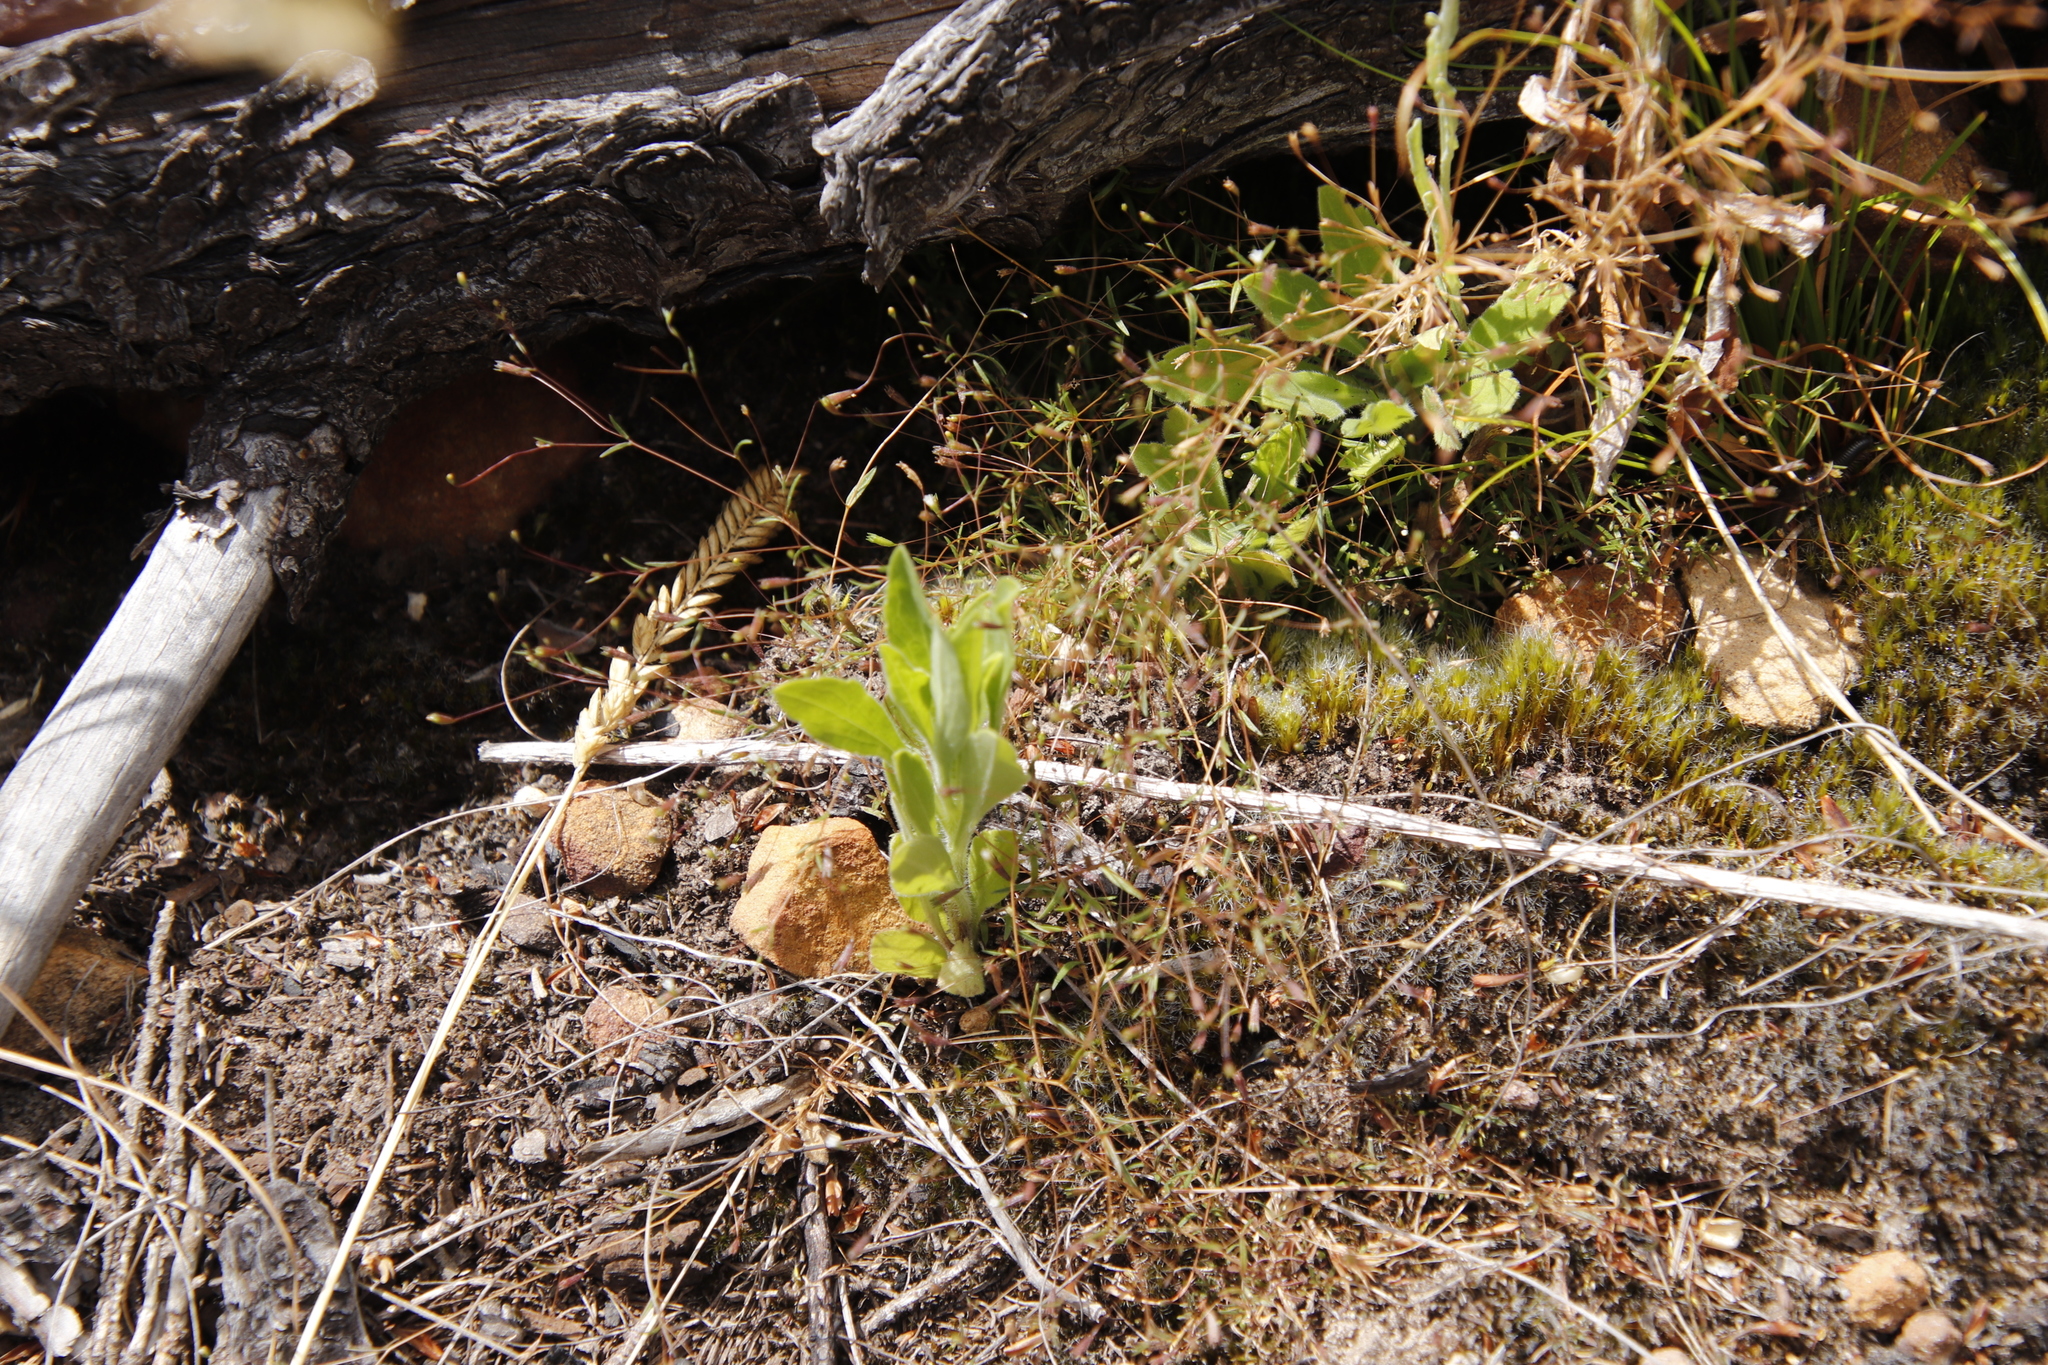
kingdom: Plantae
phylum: Bryophyta
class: Bryopsida
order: Dicranales
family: Leucobryaceae
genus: Campylopus
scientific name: Campylopus introflexus
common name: Heath star moss
